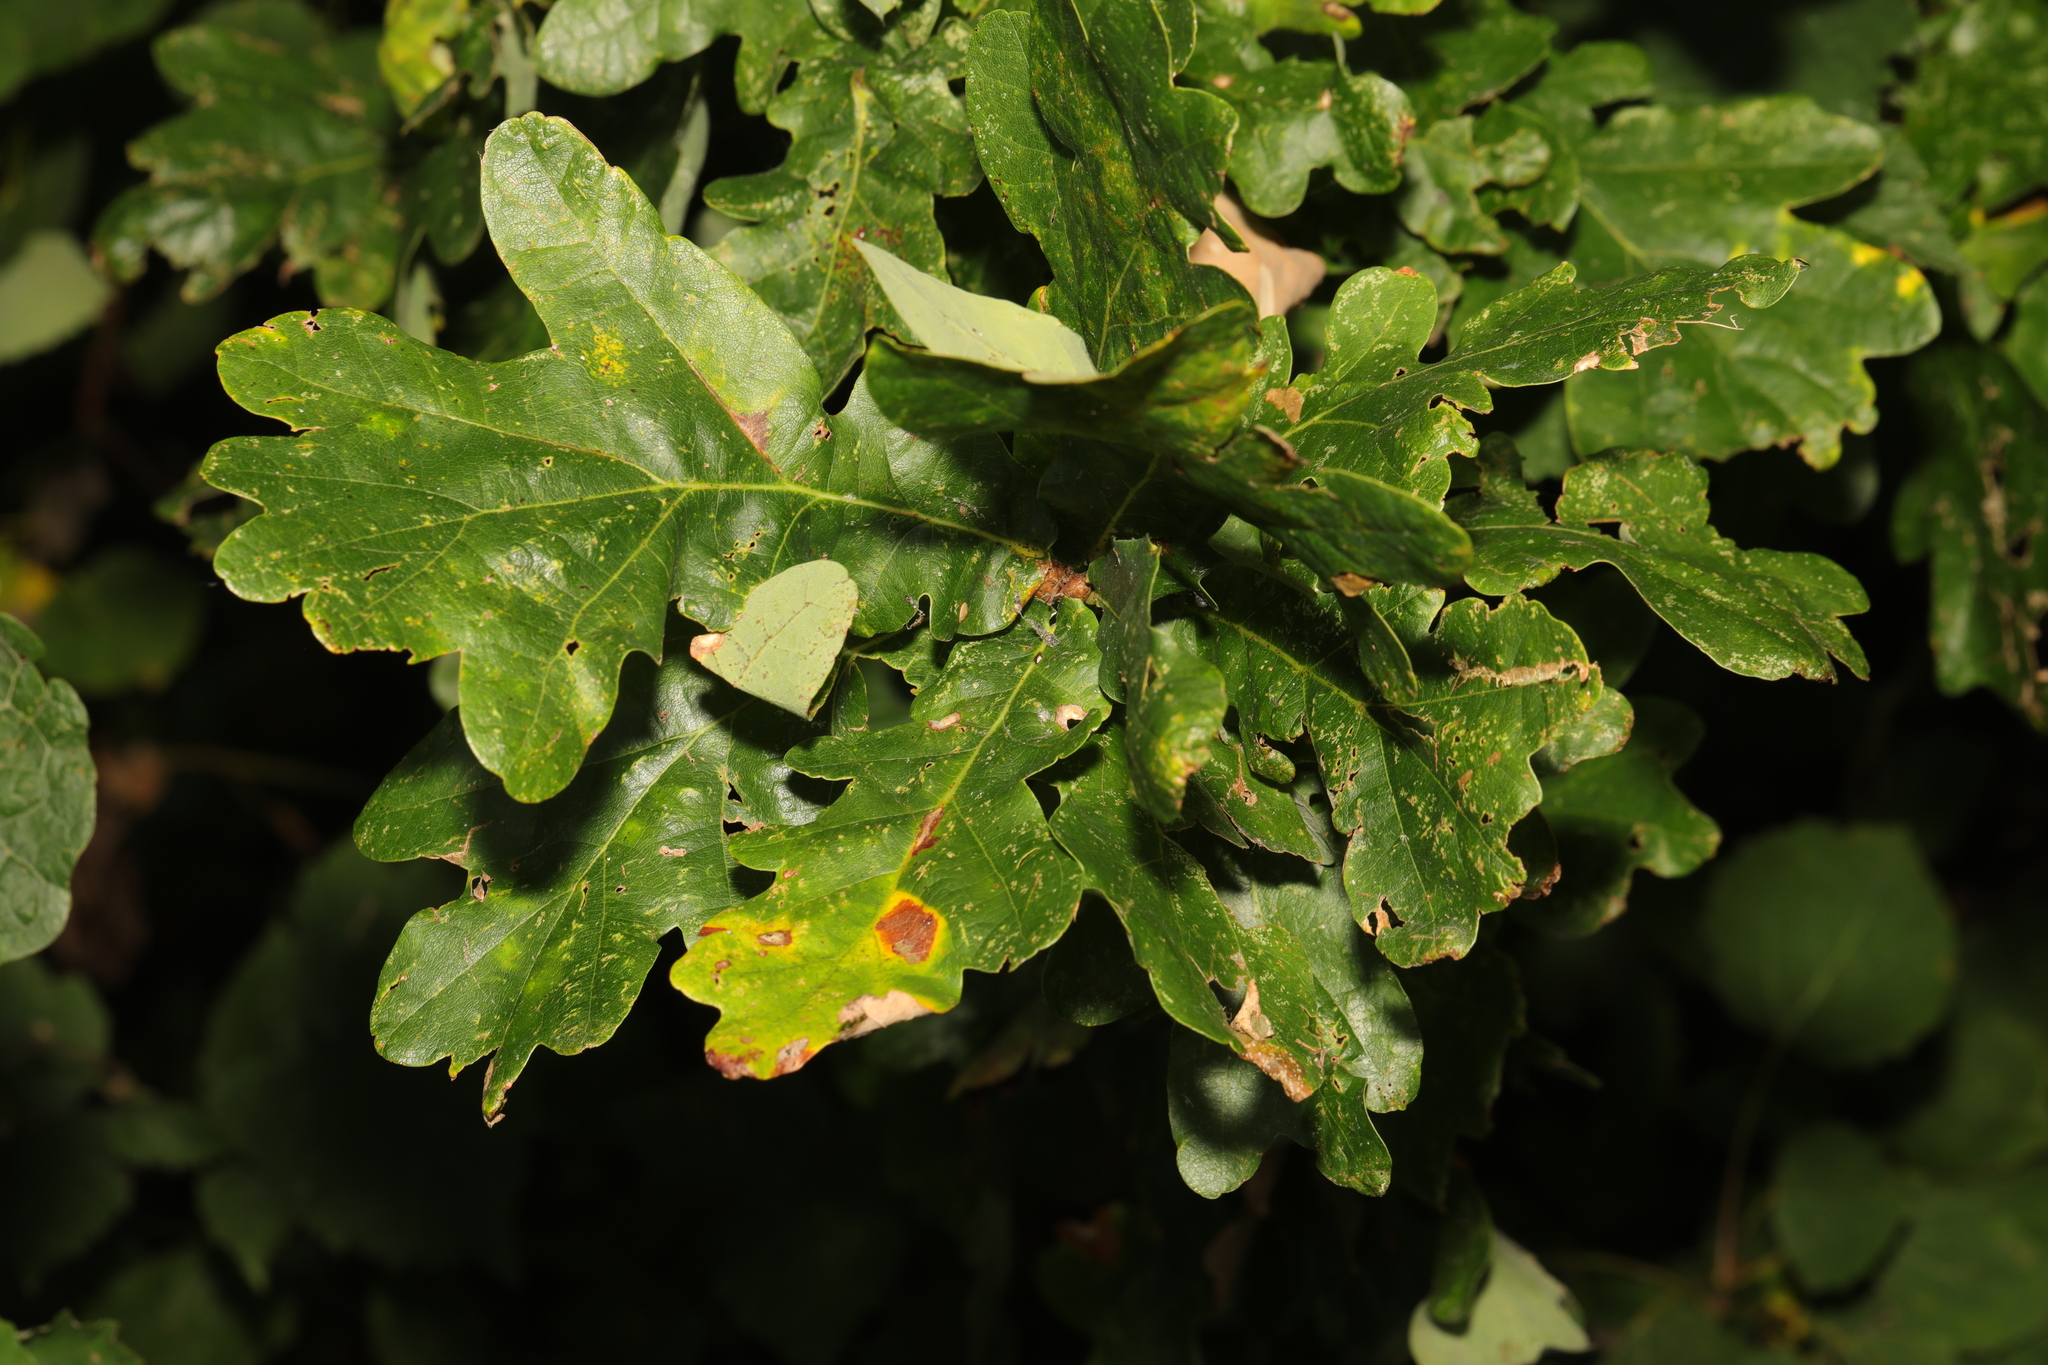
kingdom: Plantae
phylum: Tracheophyta
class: Magnoliopsida
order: Fagales
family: Fagaceae
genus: Quercus
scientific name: Quercus robur
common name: Pedunculate oak
